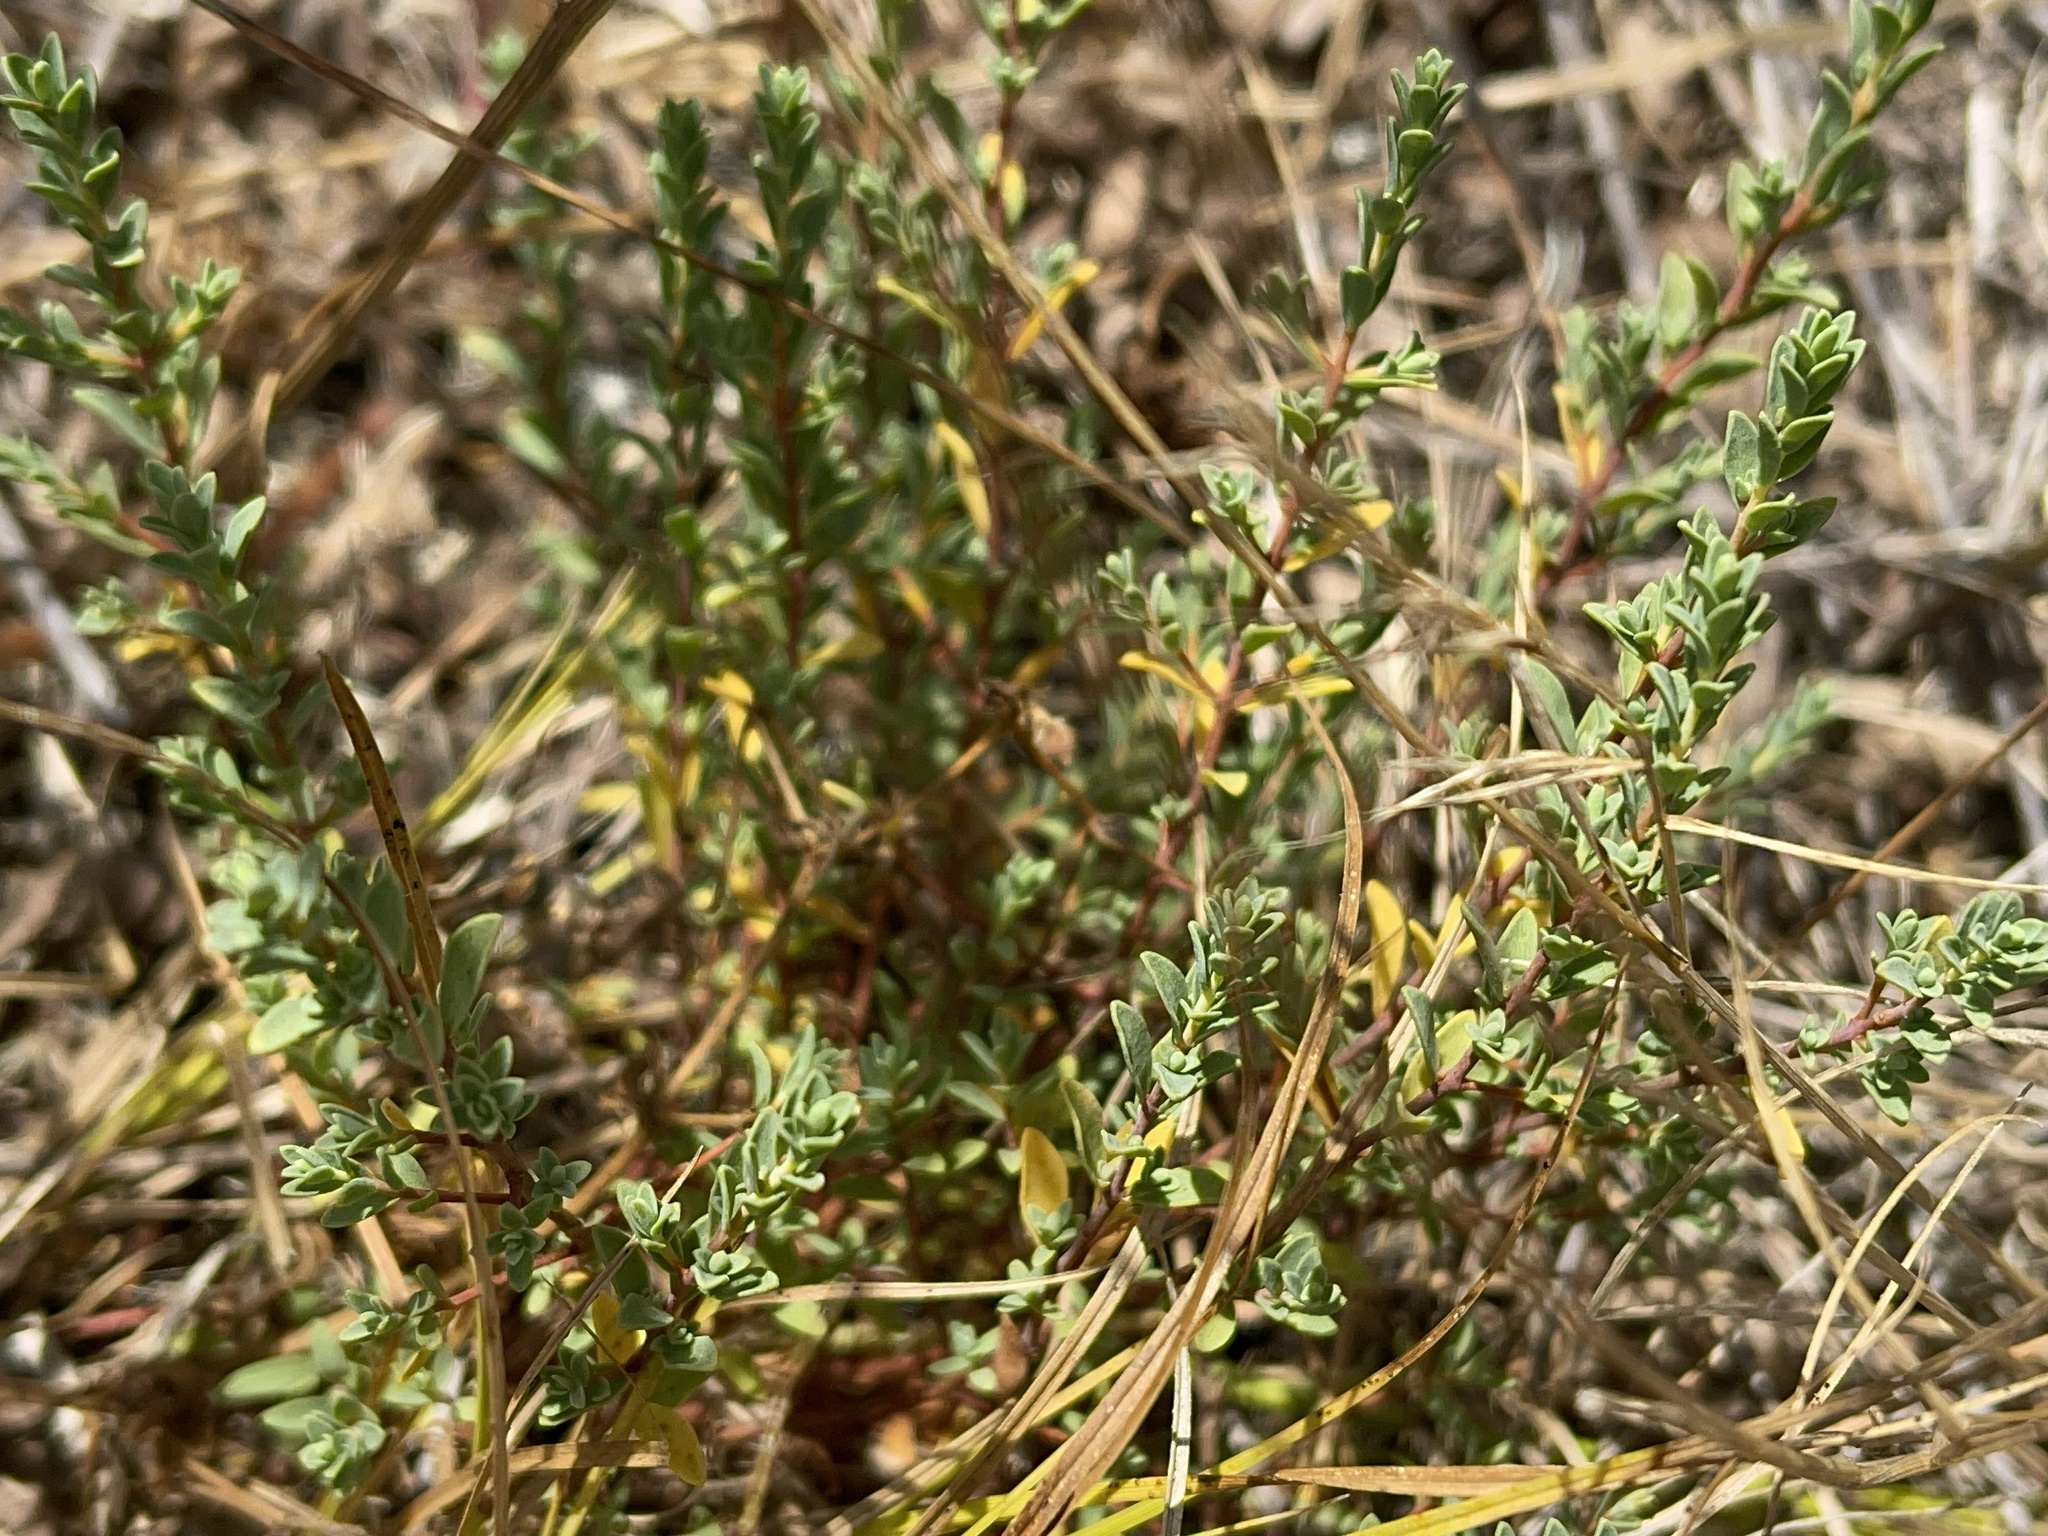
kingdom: Plantae
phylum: Tracheophyta
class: Magnoliopsida
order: Malvales
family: Thymelaeaceae
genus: Pimelea
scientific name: Pimelea spinescens
